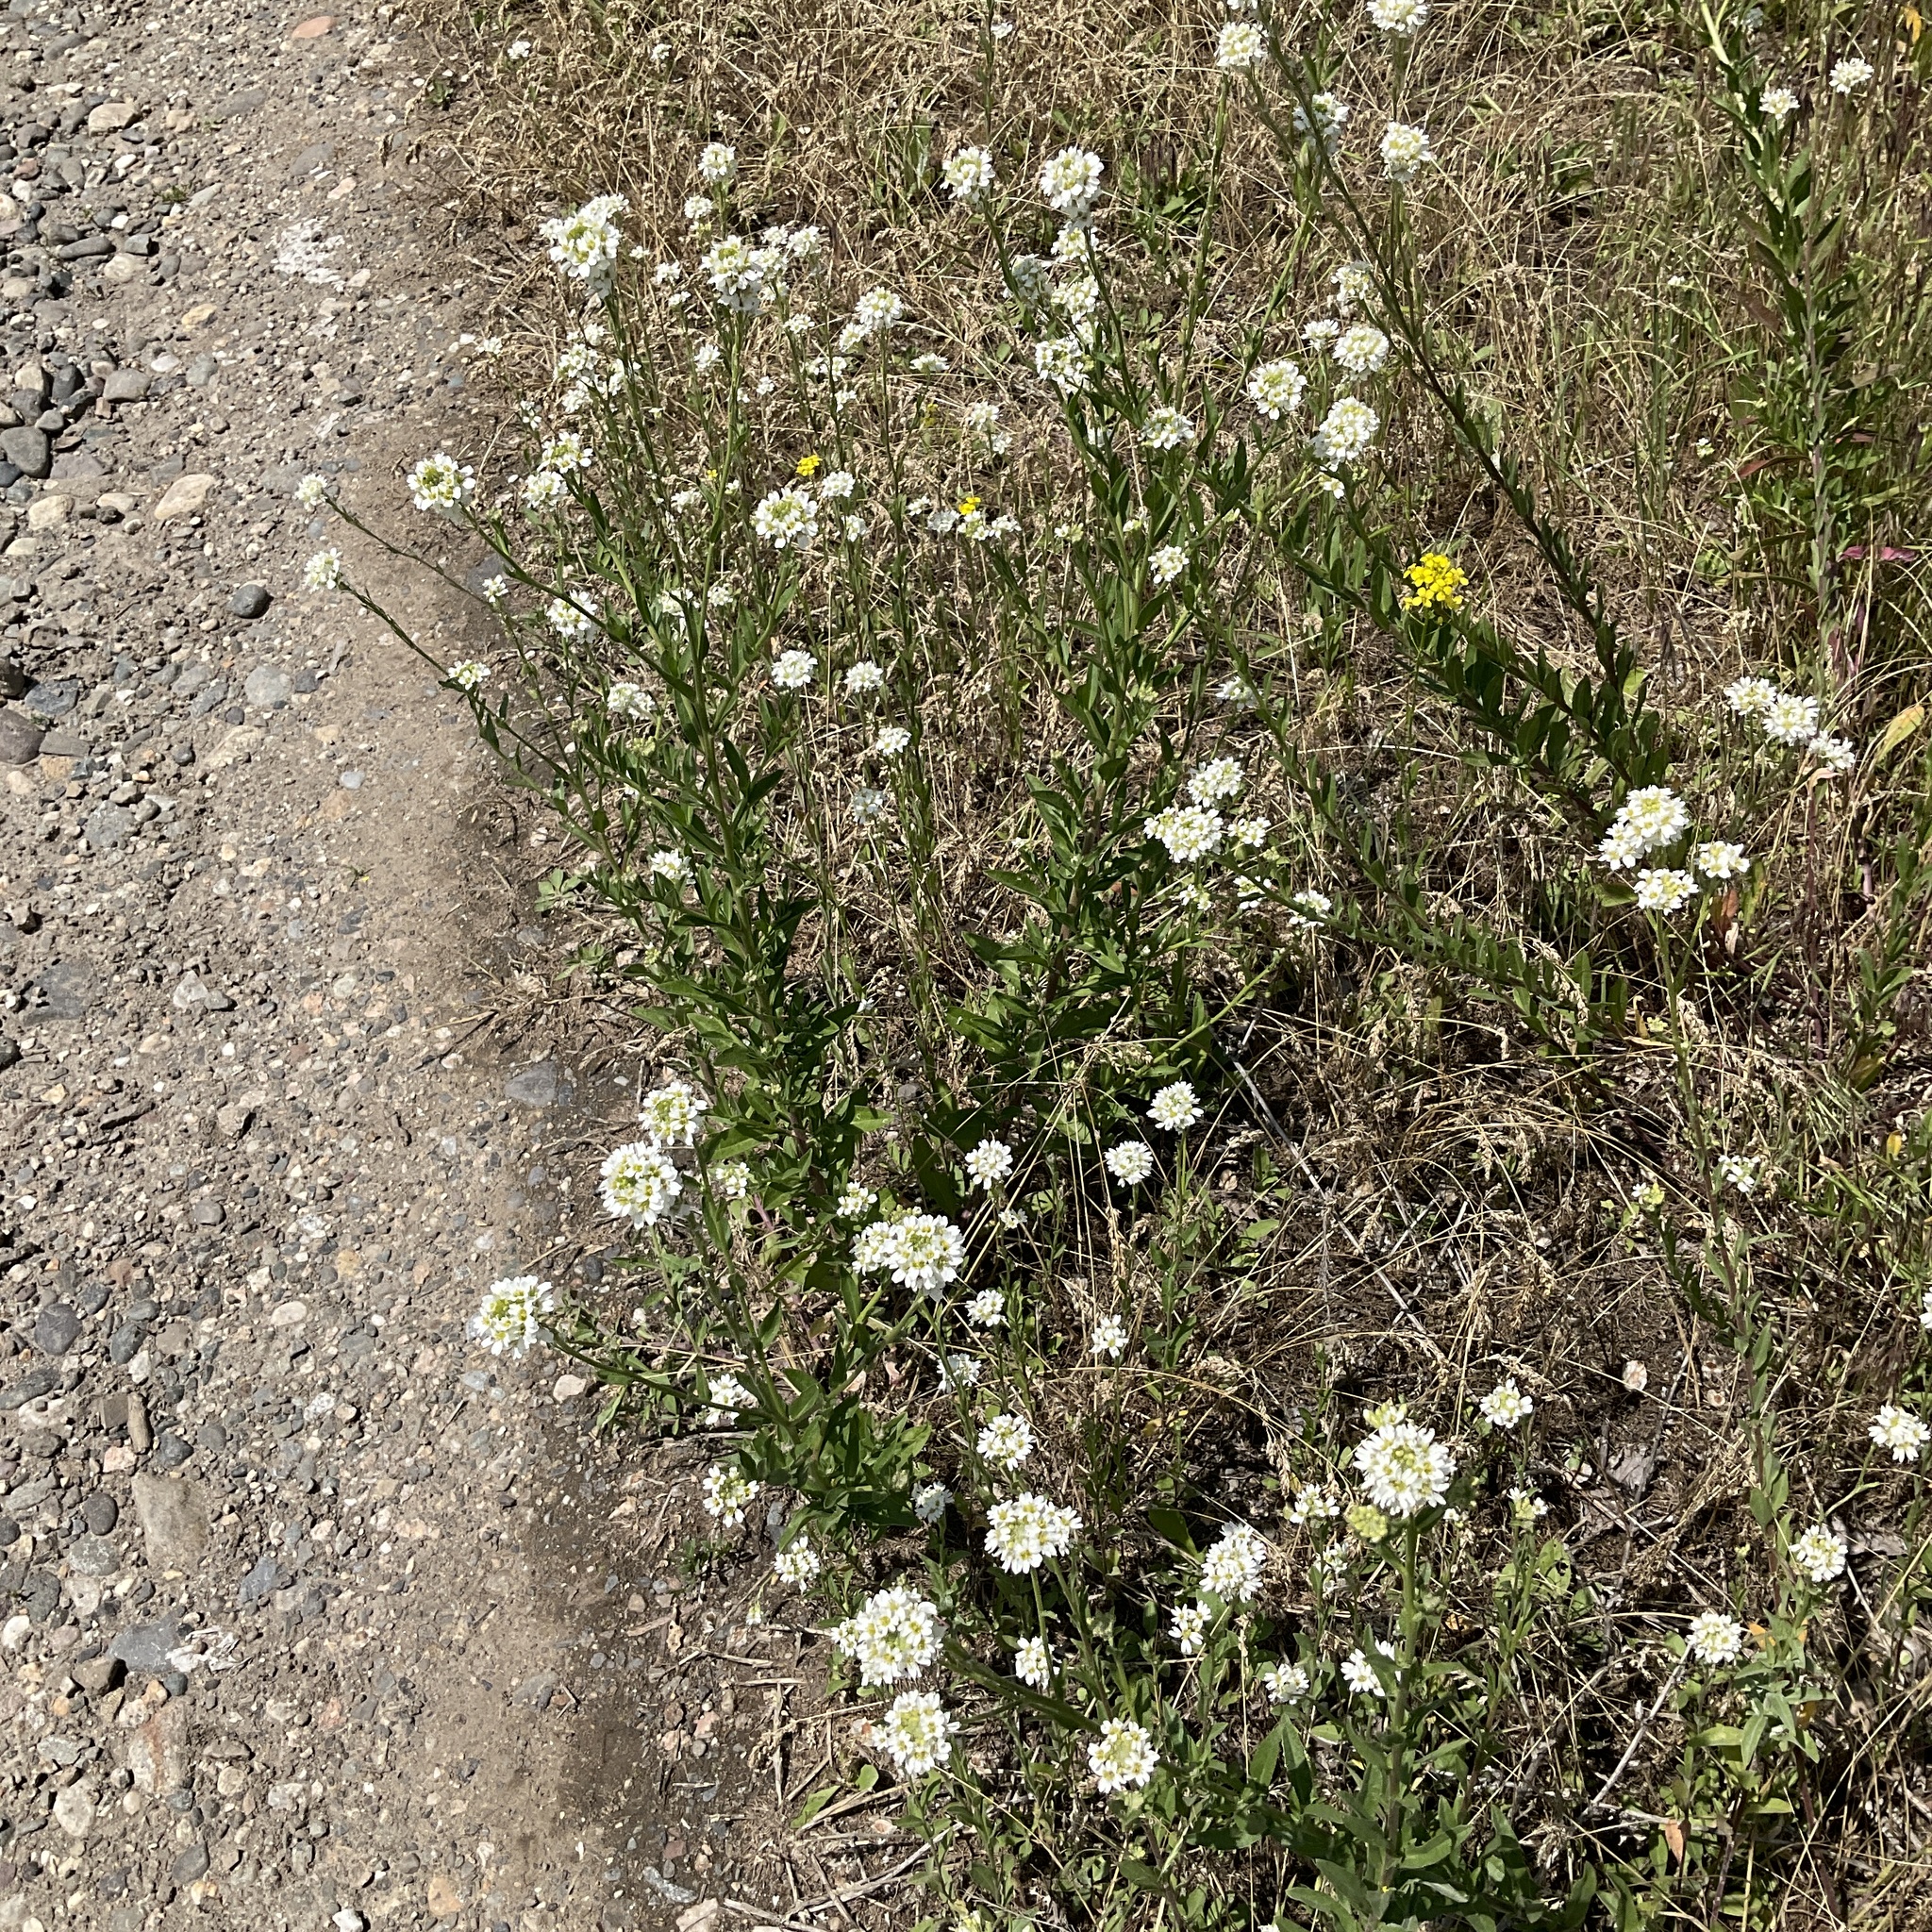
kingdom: Plantae
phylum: Tracheophyta
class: Magnoliopsida
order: Brassicales
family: Brassicaceae
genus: Berteroa
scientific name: Berteroa incana
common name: Hoary alison
